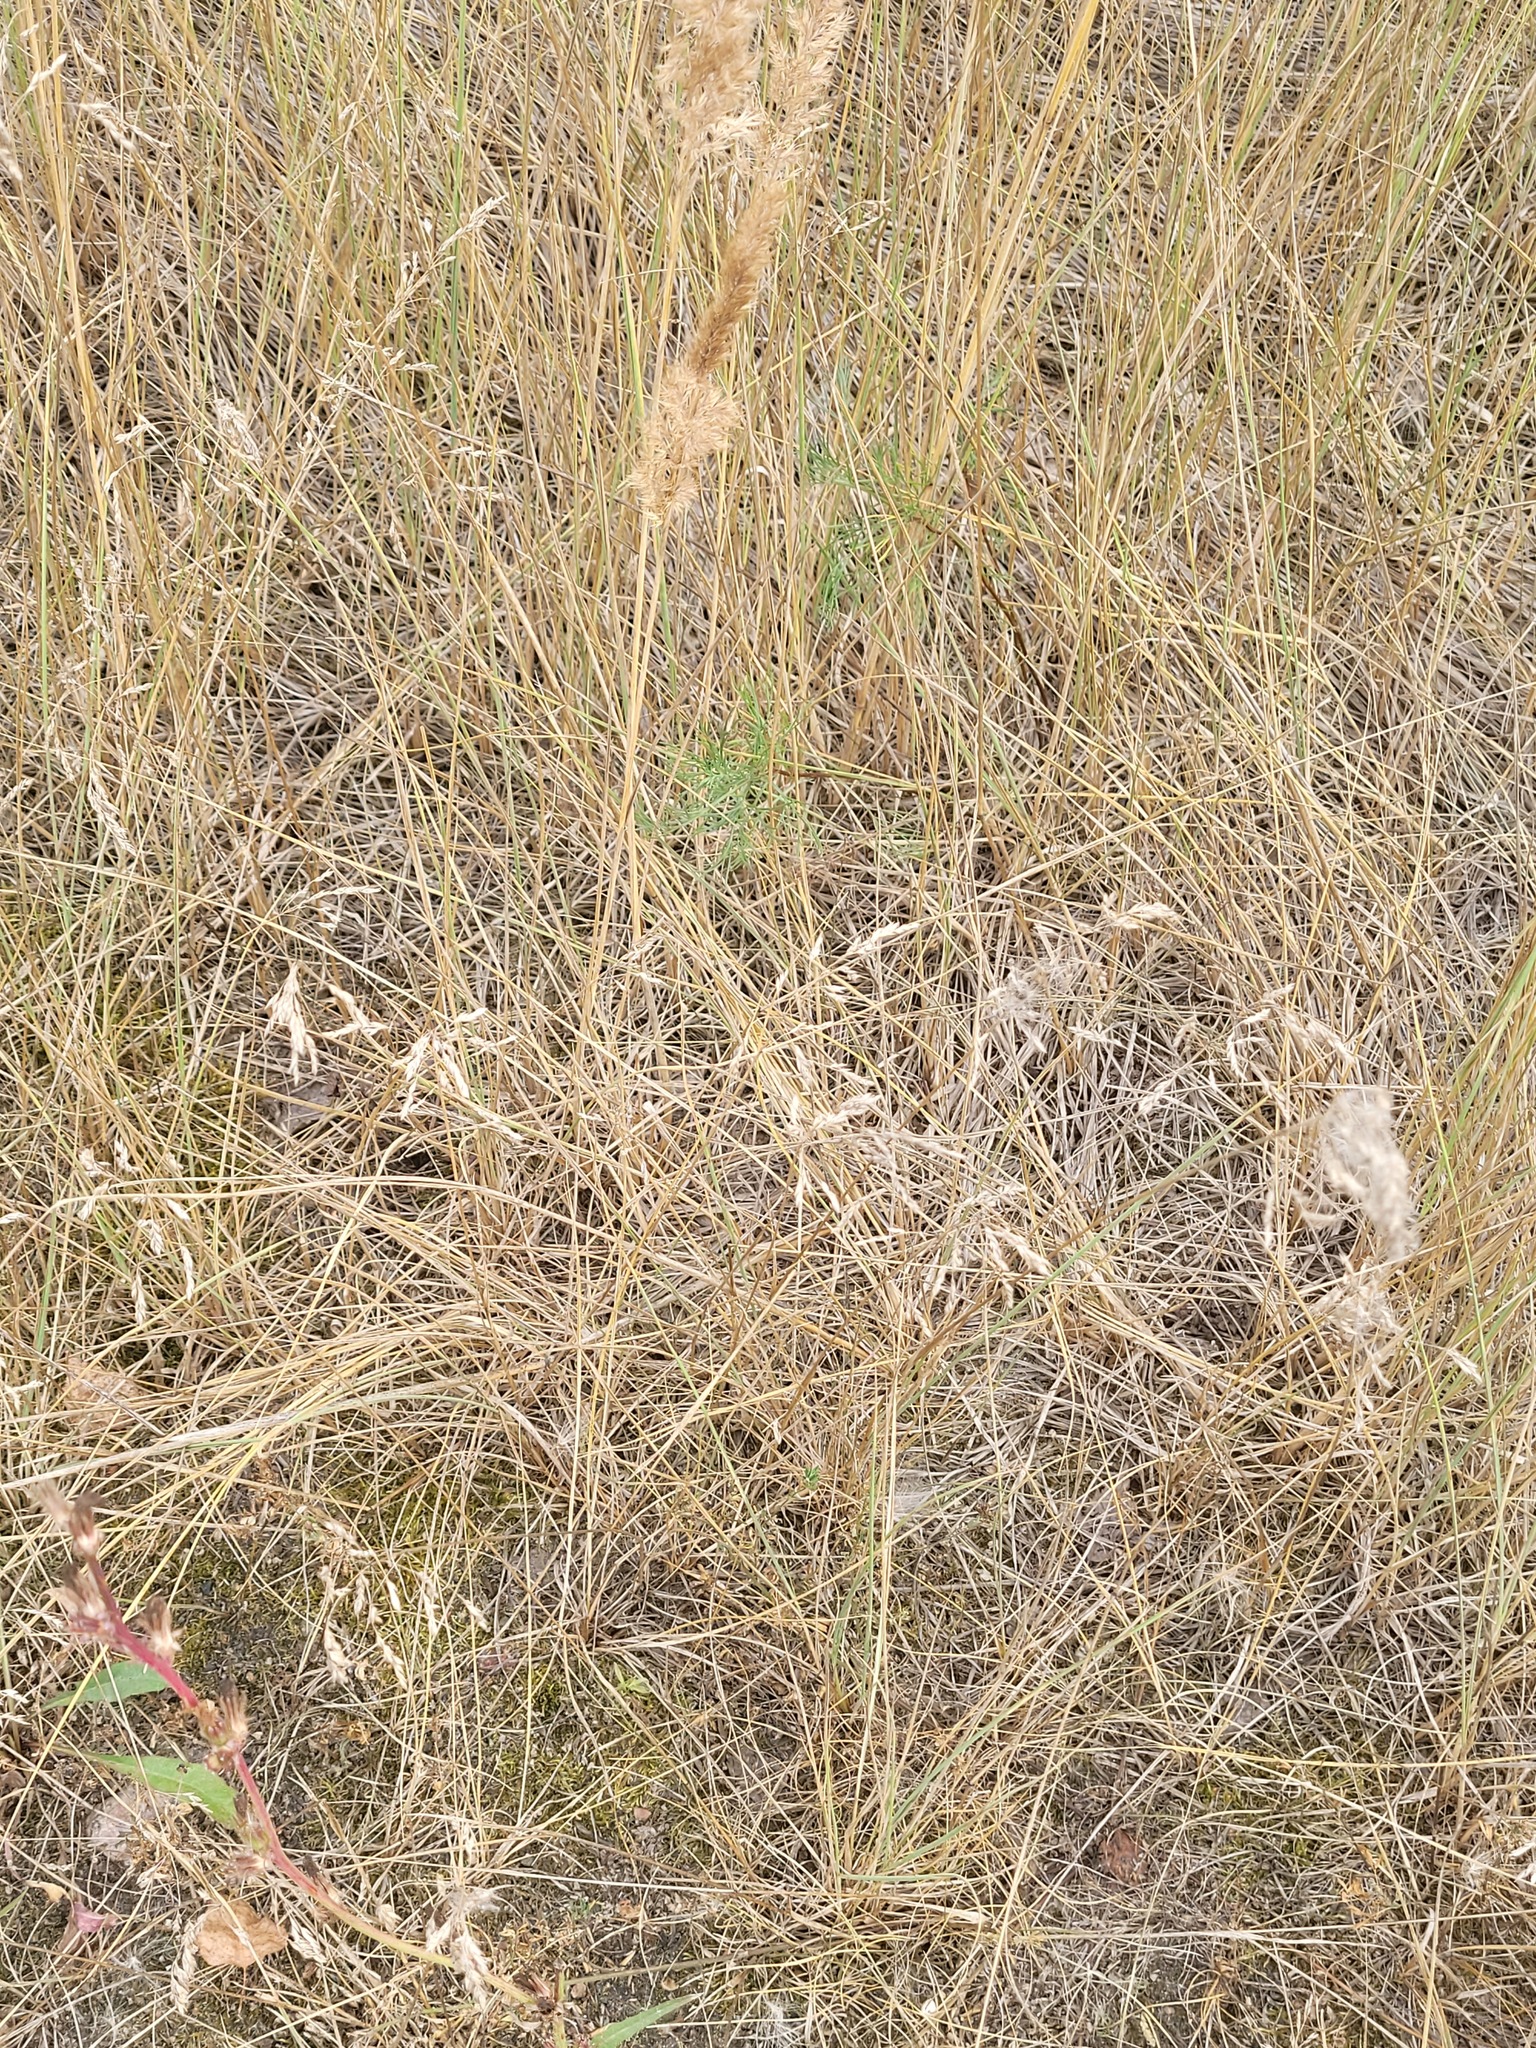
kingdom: Plantae
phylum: Tracheophyta
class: Liliopsida
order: Poales
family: Poaceae
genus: Poa
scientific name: Poa angustifolia
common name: Narrow-leaved meadow-grass
